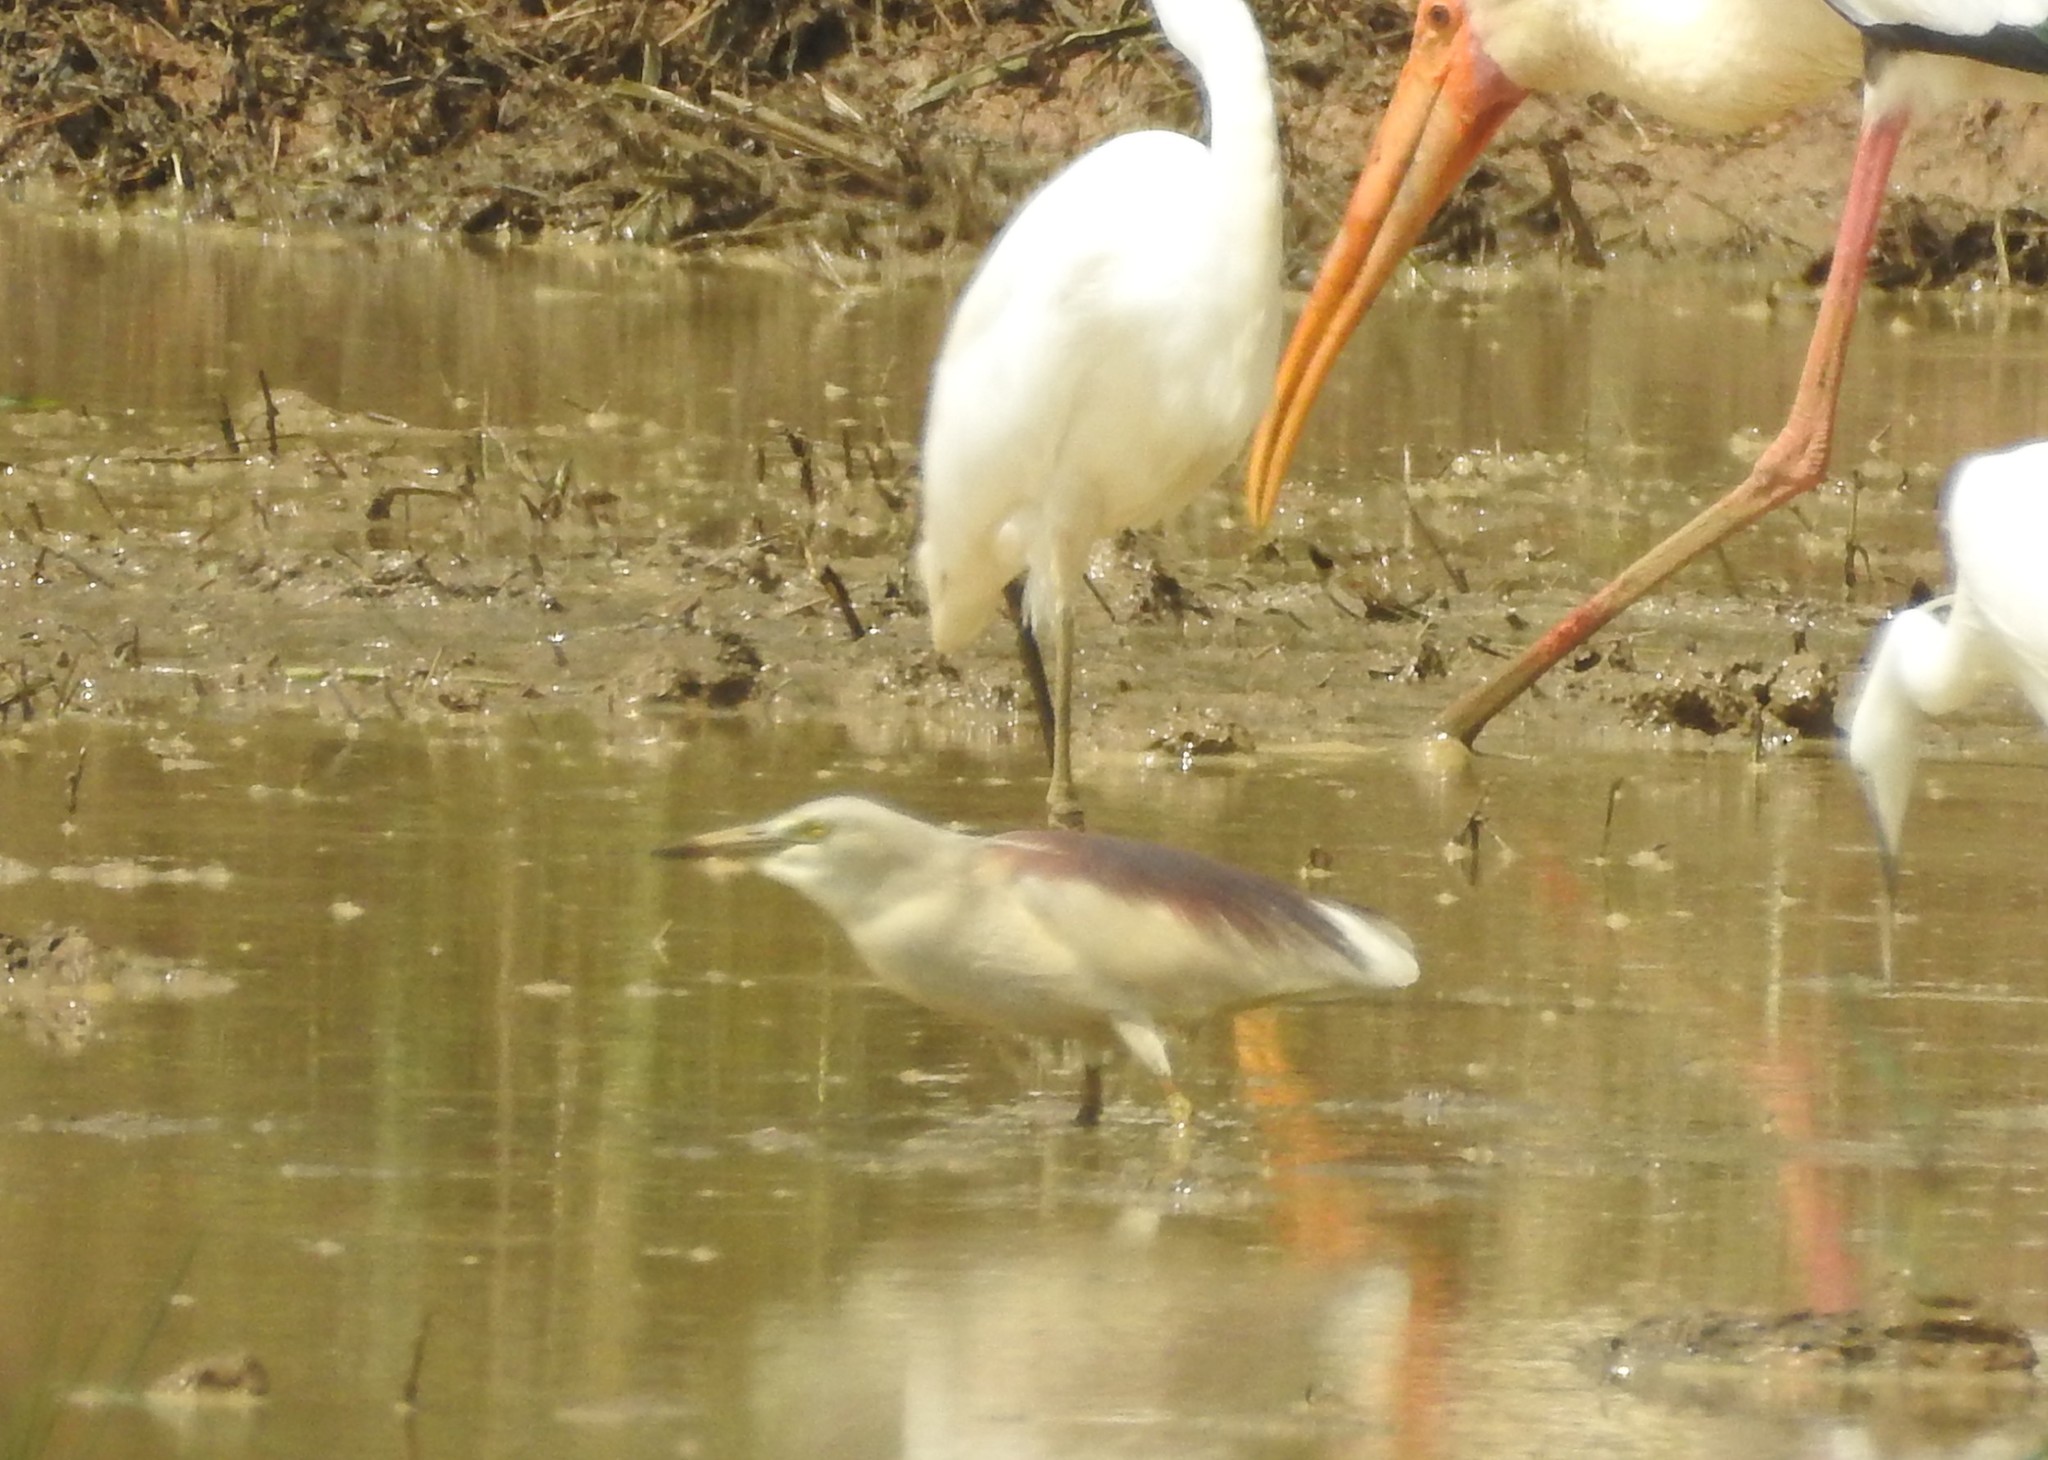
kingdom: Animalia
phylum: Chordata
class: Aves
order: Pelecaniformes
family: Ardeidae
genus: Ardeola
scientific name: Ardeola grayii
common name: Indian pond heron
